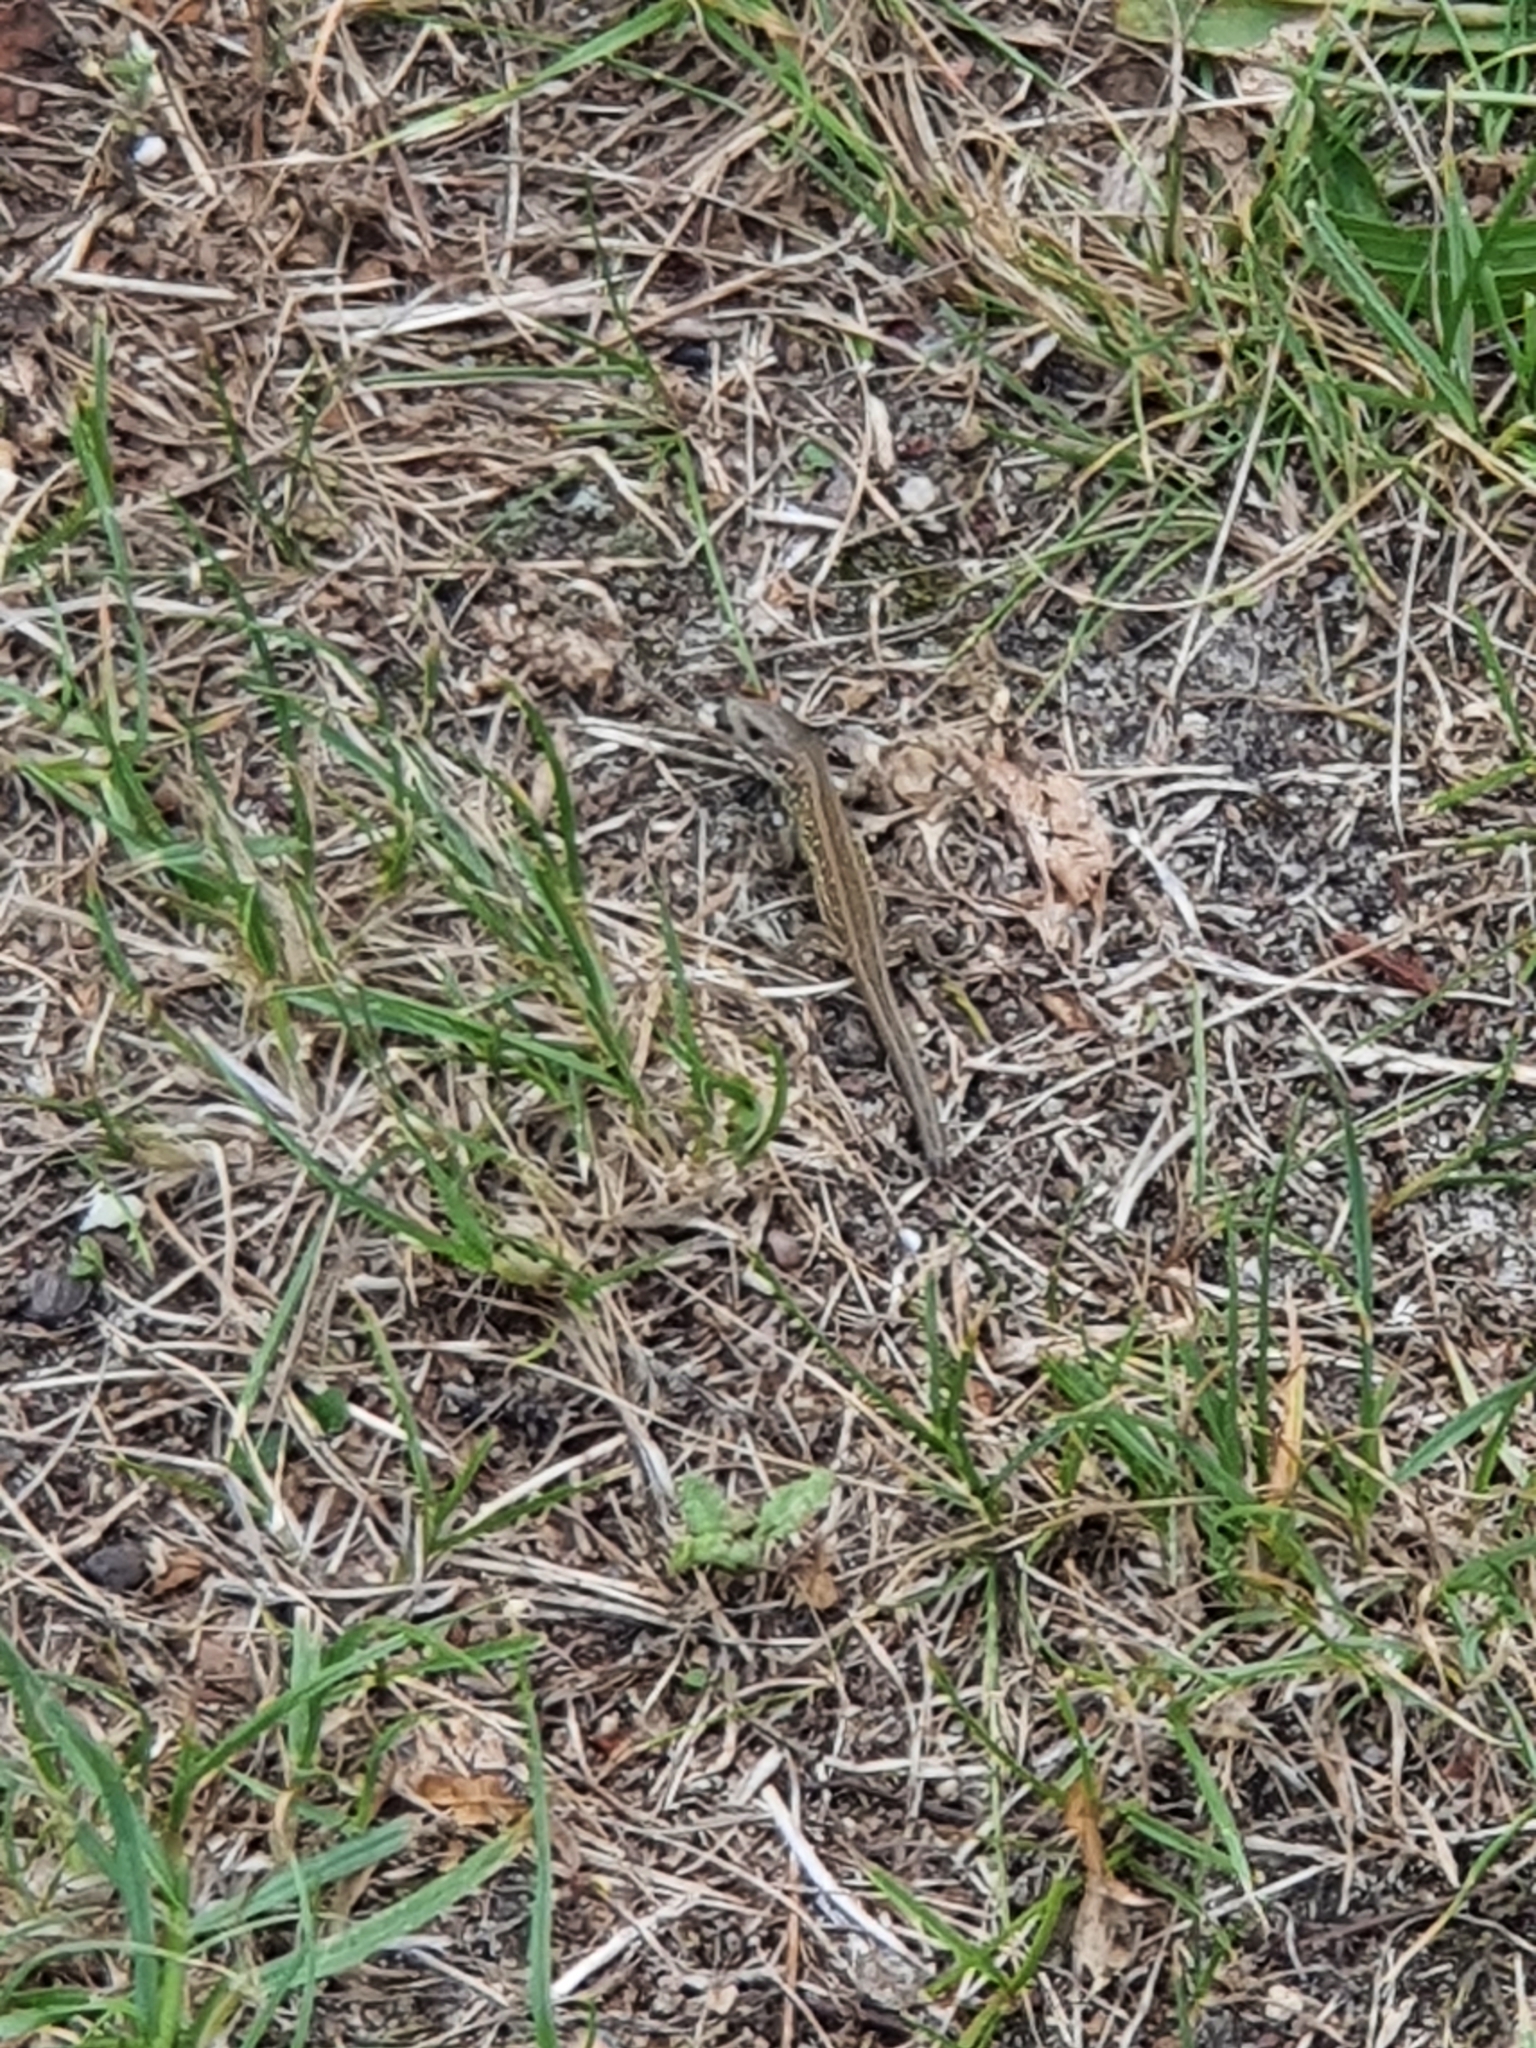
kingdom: Animalia
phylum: Chordata
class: Squamata
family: Lacertidae
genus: Lacerta
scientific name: Lacerta agilis
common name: Sand lizard
